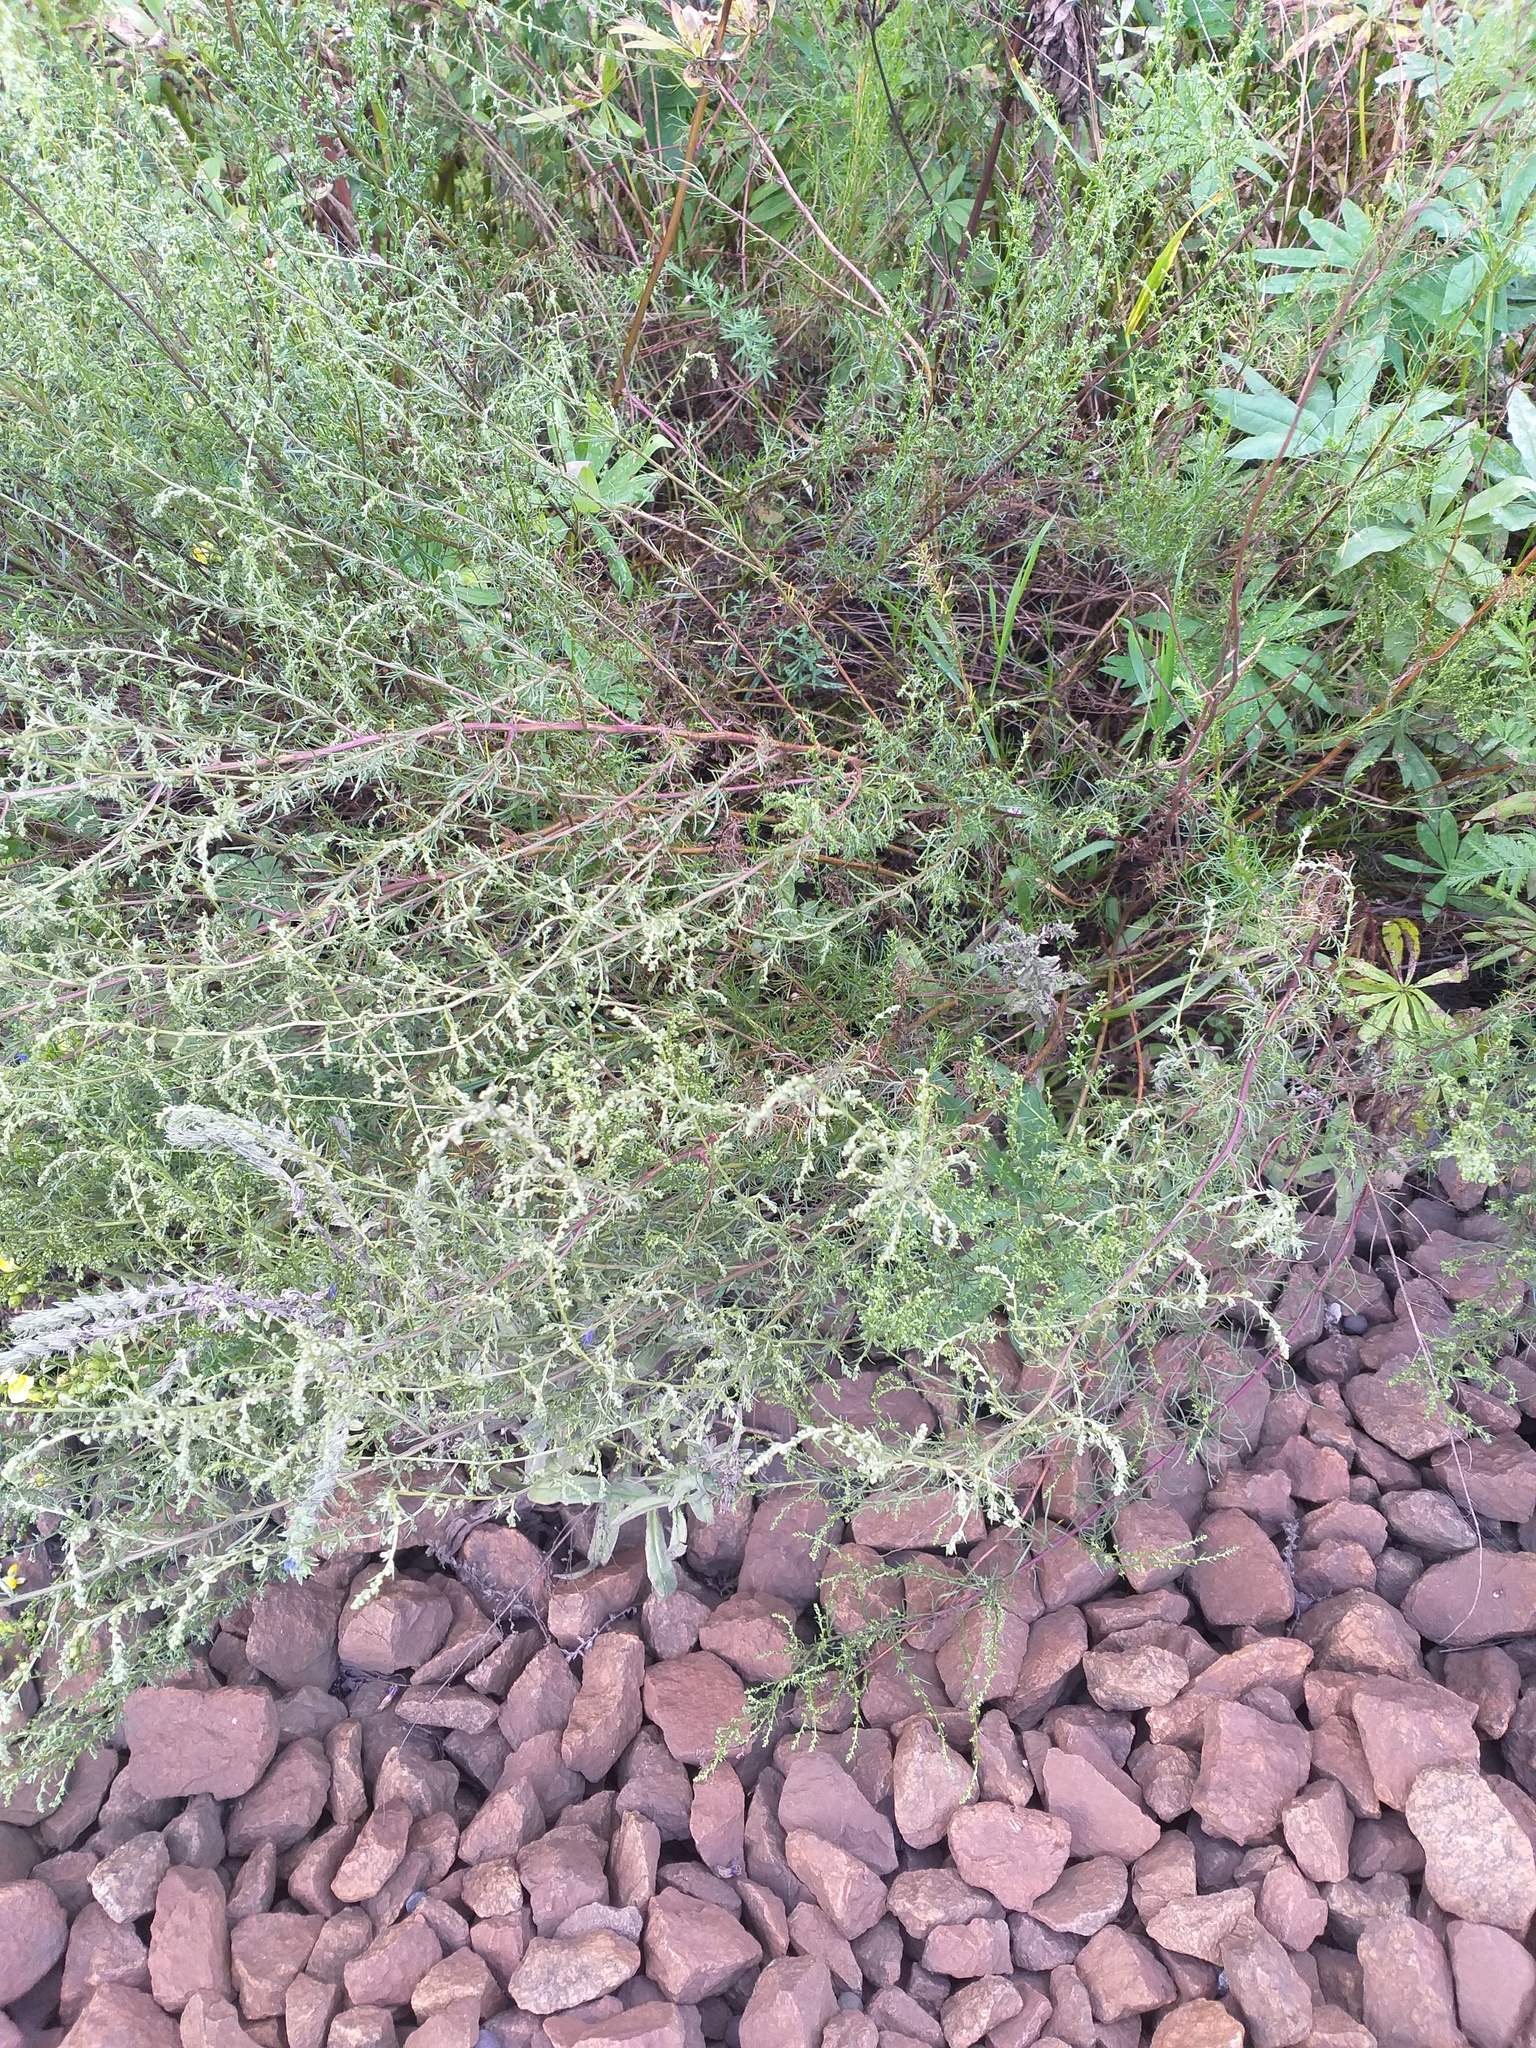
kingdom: Plantae
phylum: Tracheophyta
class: Magnoliopsida
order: Asterales
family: Asteraceae
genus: Artemisia
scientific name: Artemisia campestris
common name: Field wormwood
